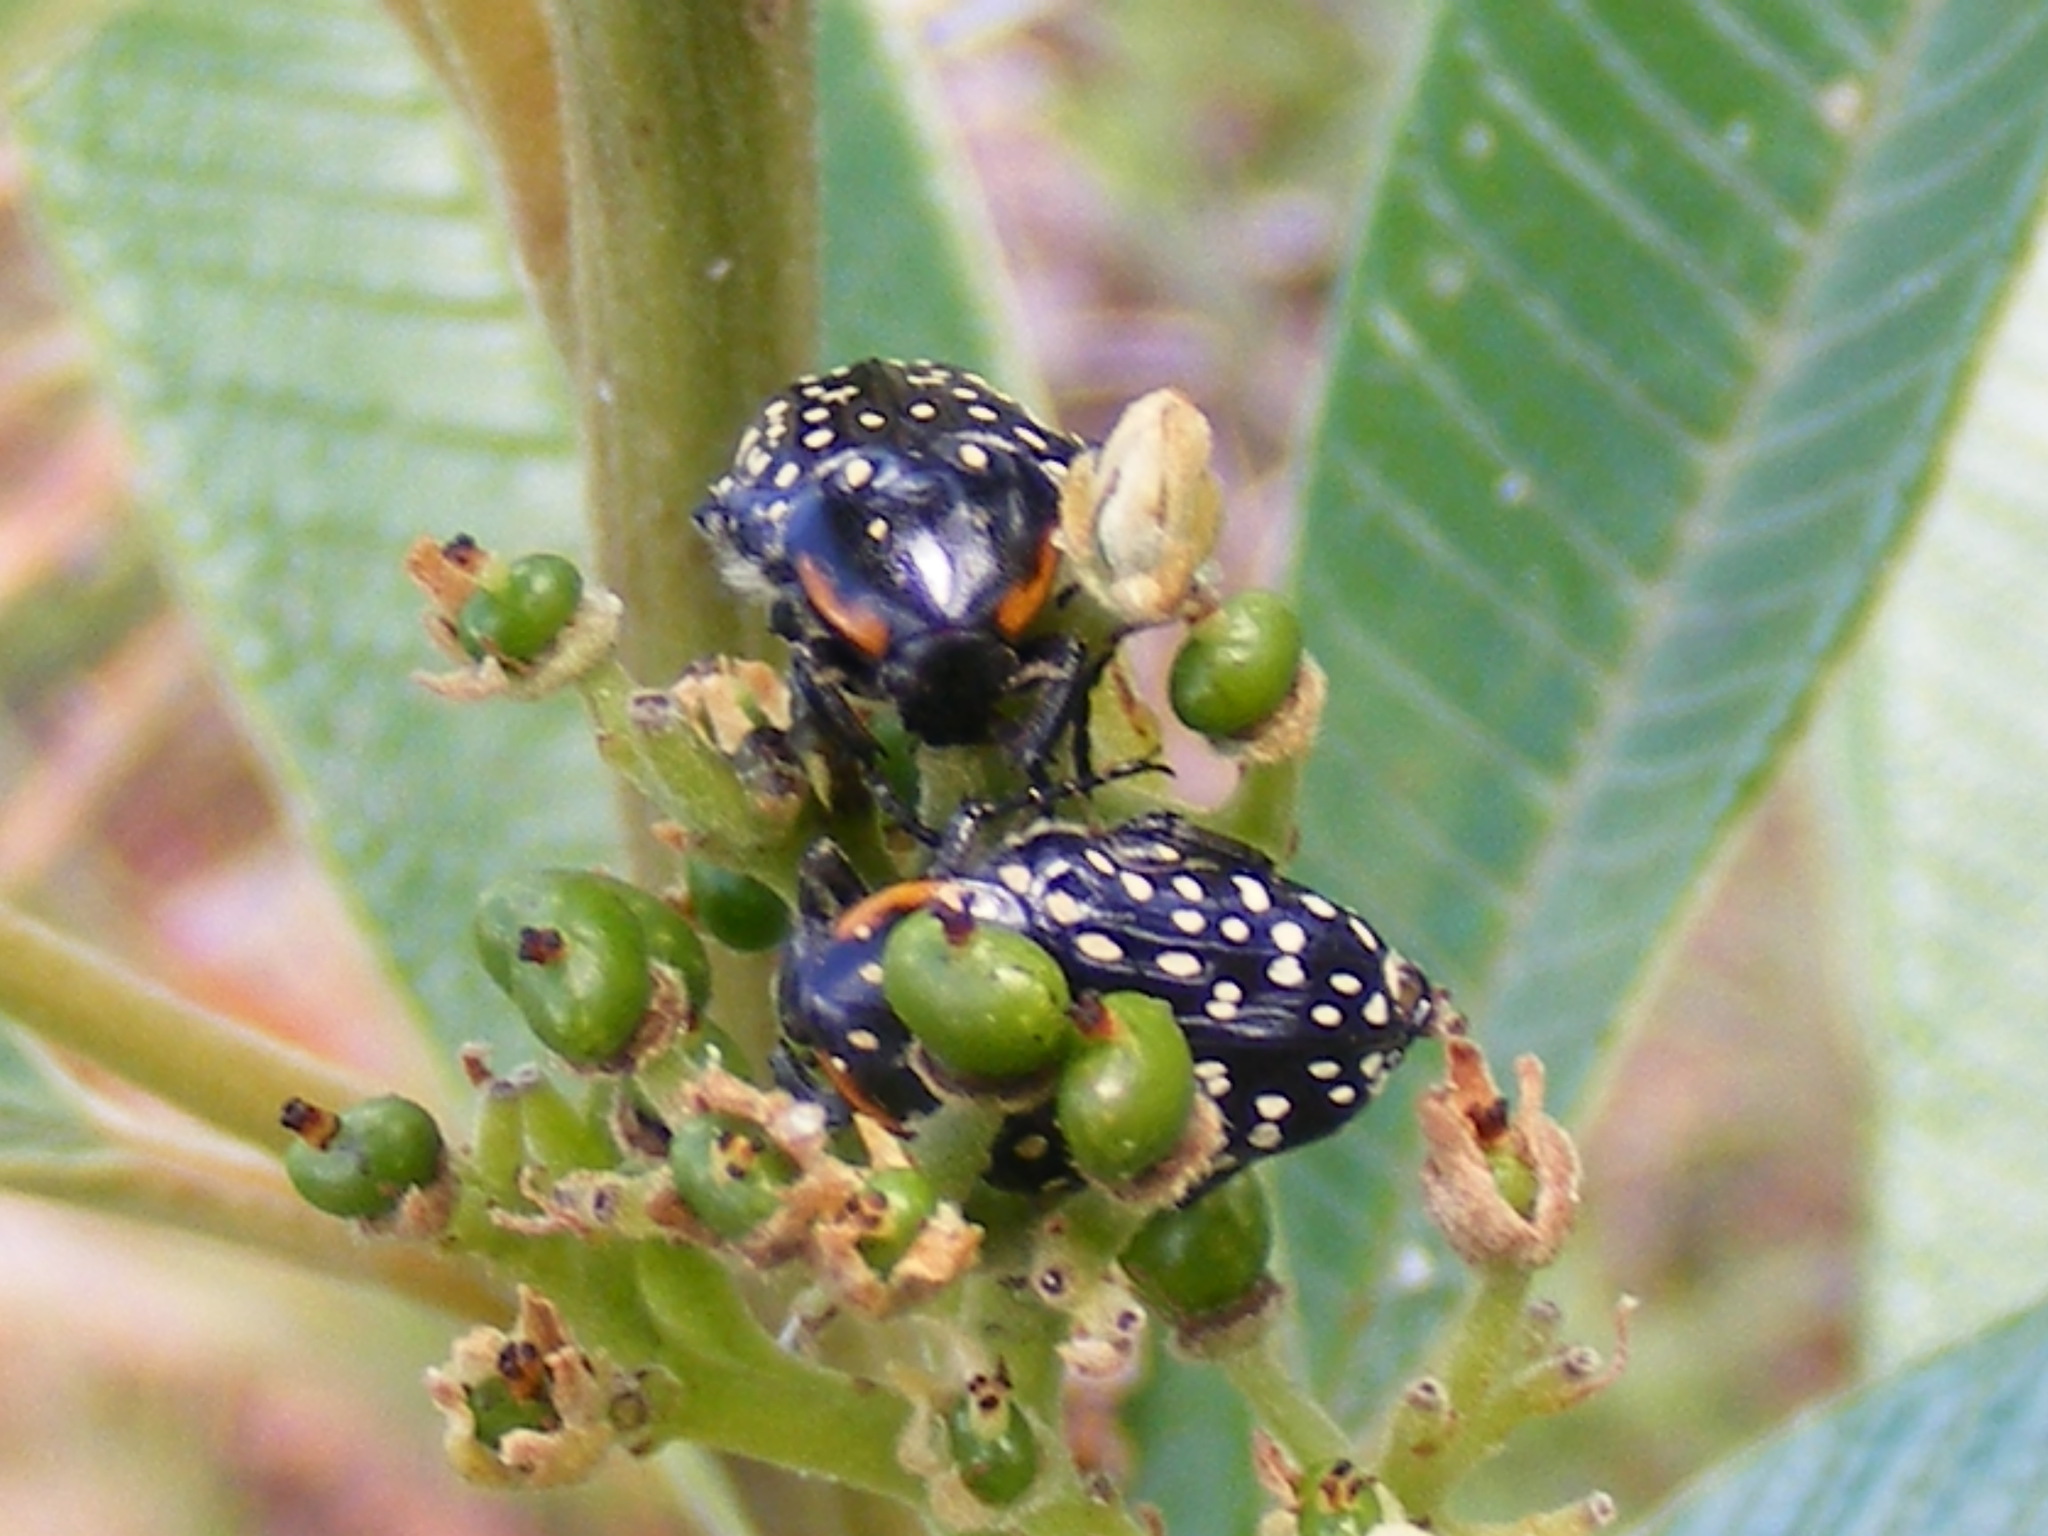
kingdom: Animalia
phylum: Arthropoda
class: Insecta
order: Coleoptera
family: Scarabaeidae
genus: Oxythyrea
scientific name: Oxythyrea
